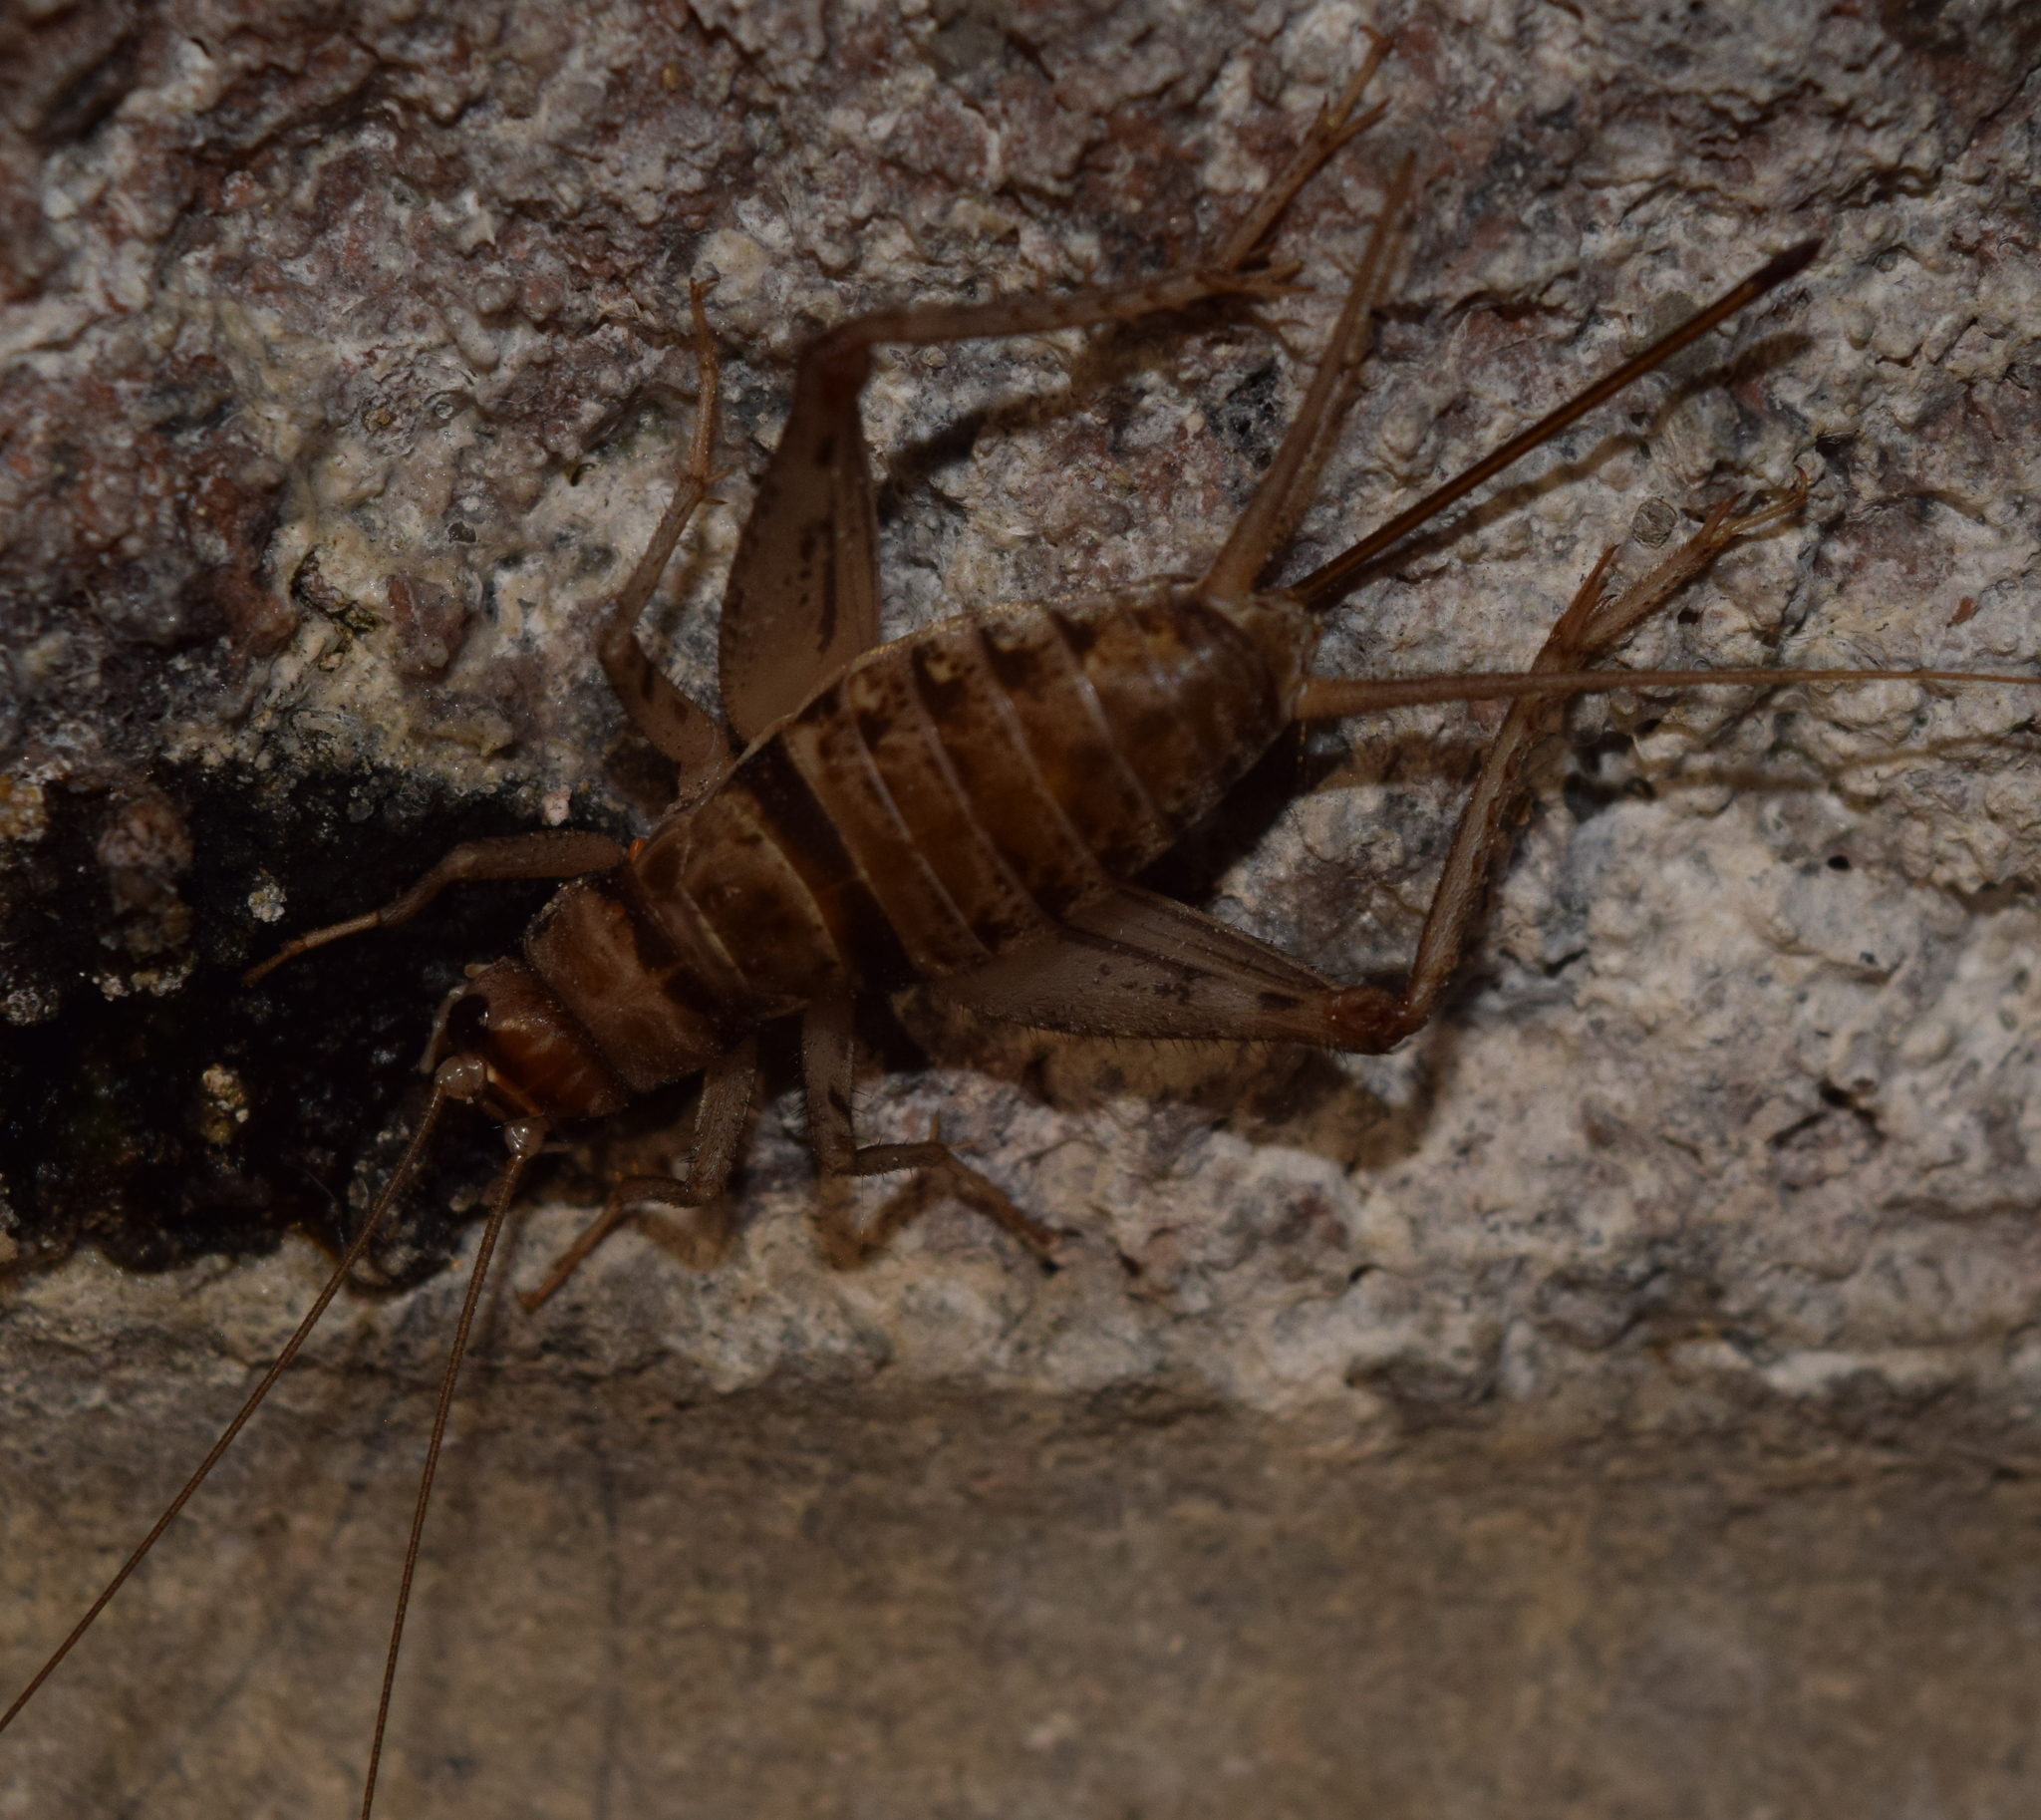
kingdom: Animalia
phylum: Arthropoda
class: Insecta
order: Orthoptera
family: Gryllidae
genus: Gryllodes
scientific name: Gryllodes sigillatus
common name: Tropical house cricket
